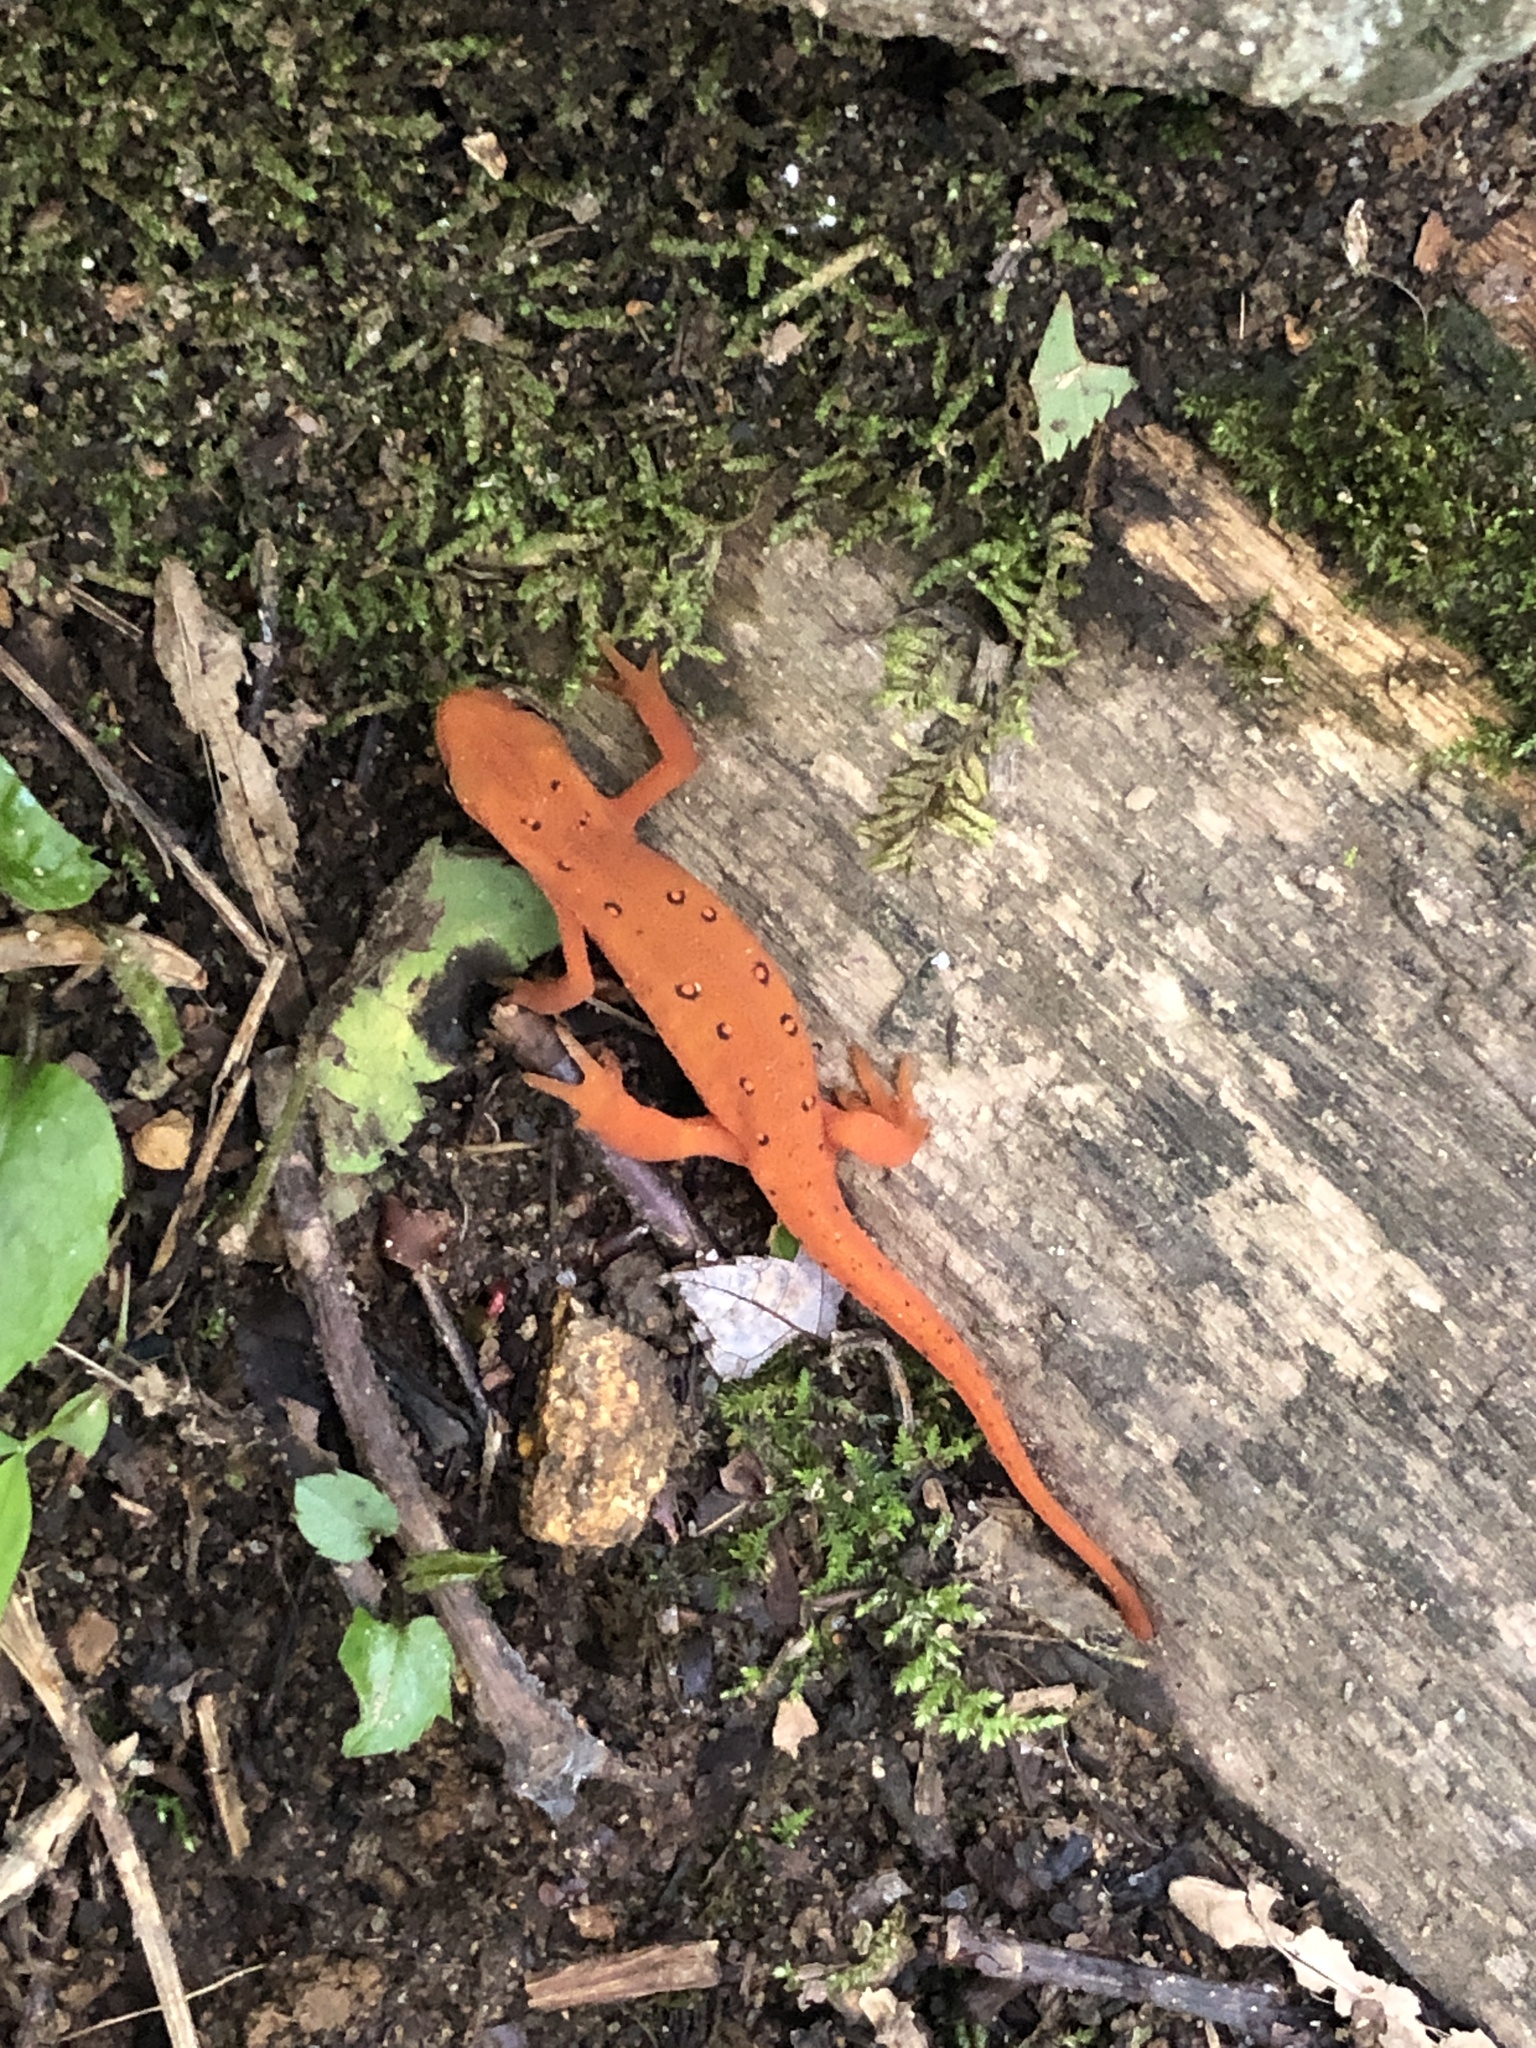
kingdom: Animalia
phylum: Chordata
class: Amphibia
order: Caudata
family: Salamandridae
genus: Notophthalmus
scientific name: Notophthalmus viridescens
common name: Eastern newt
